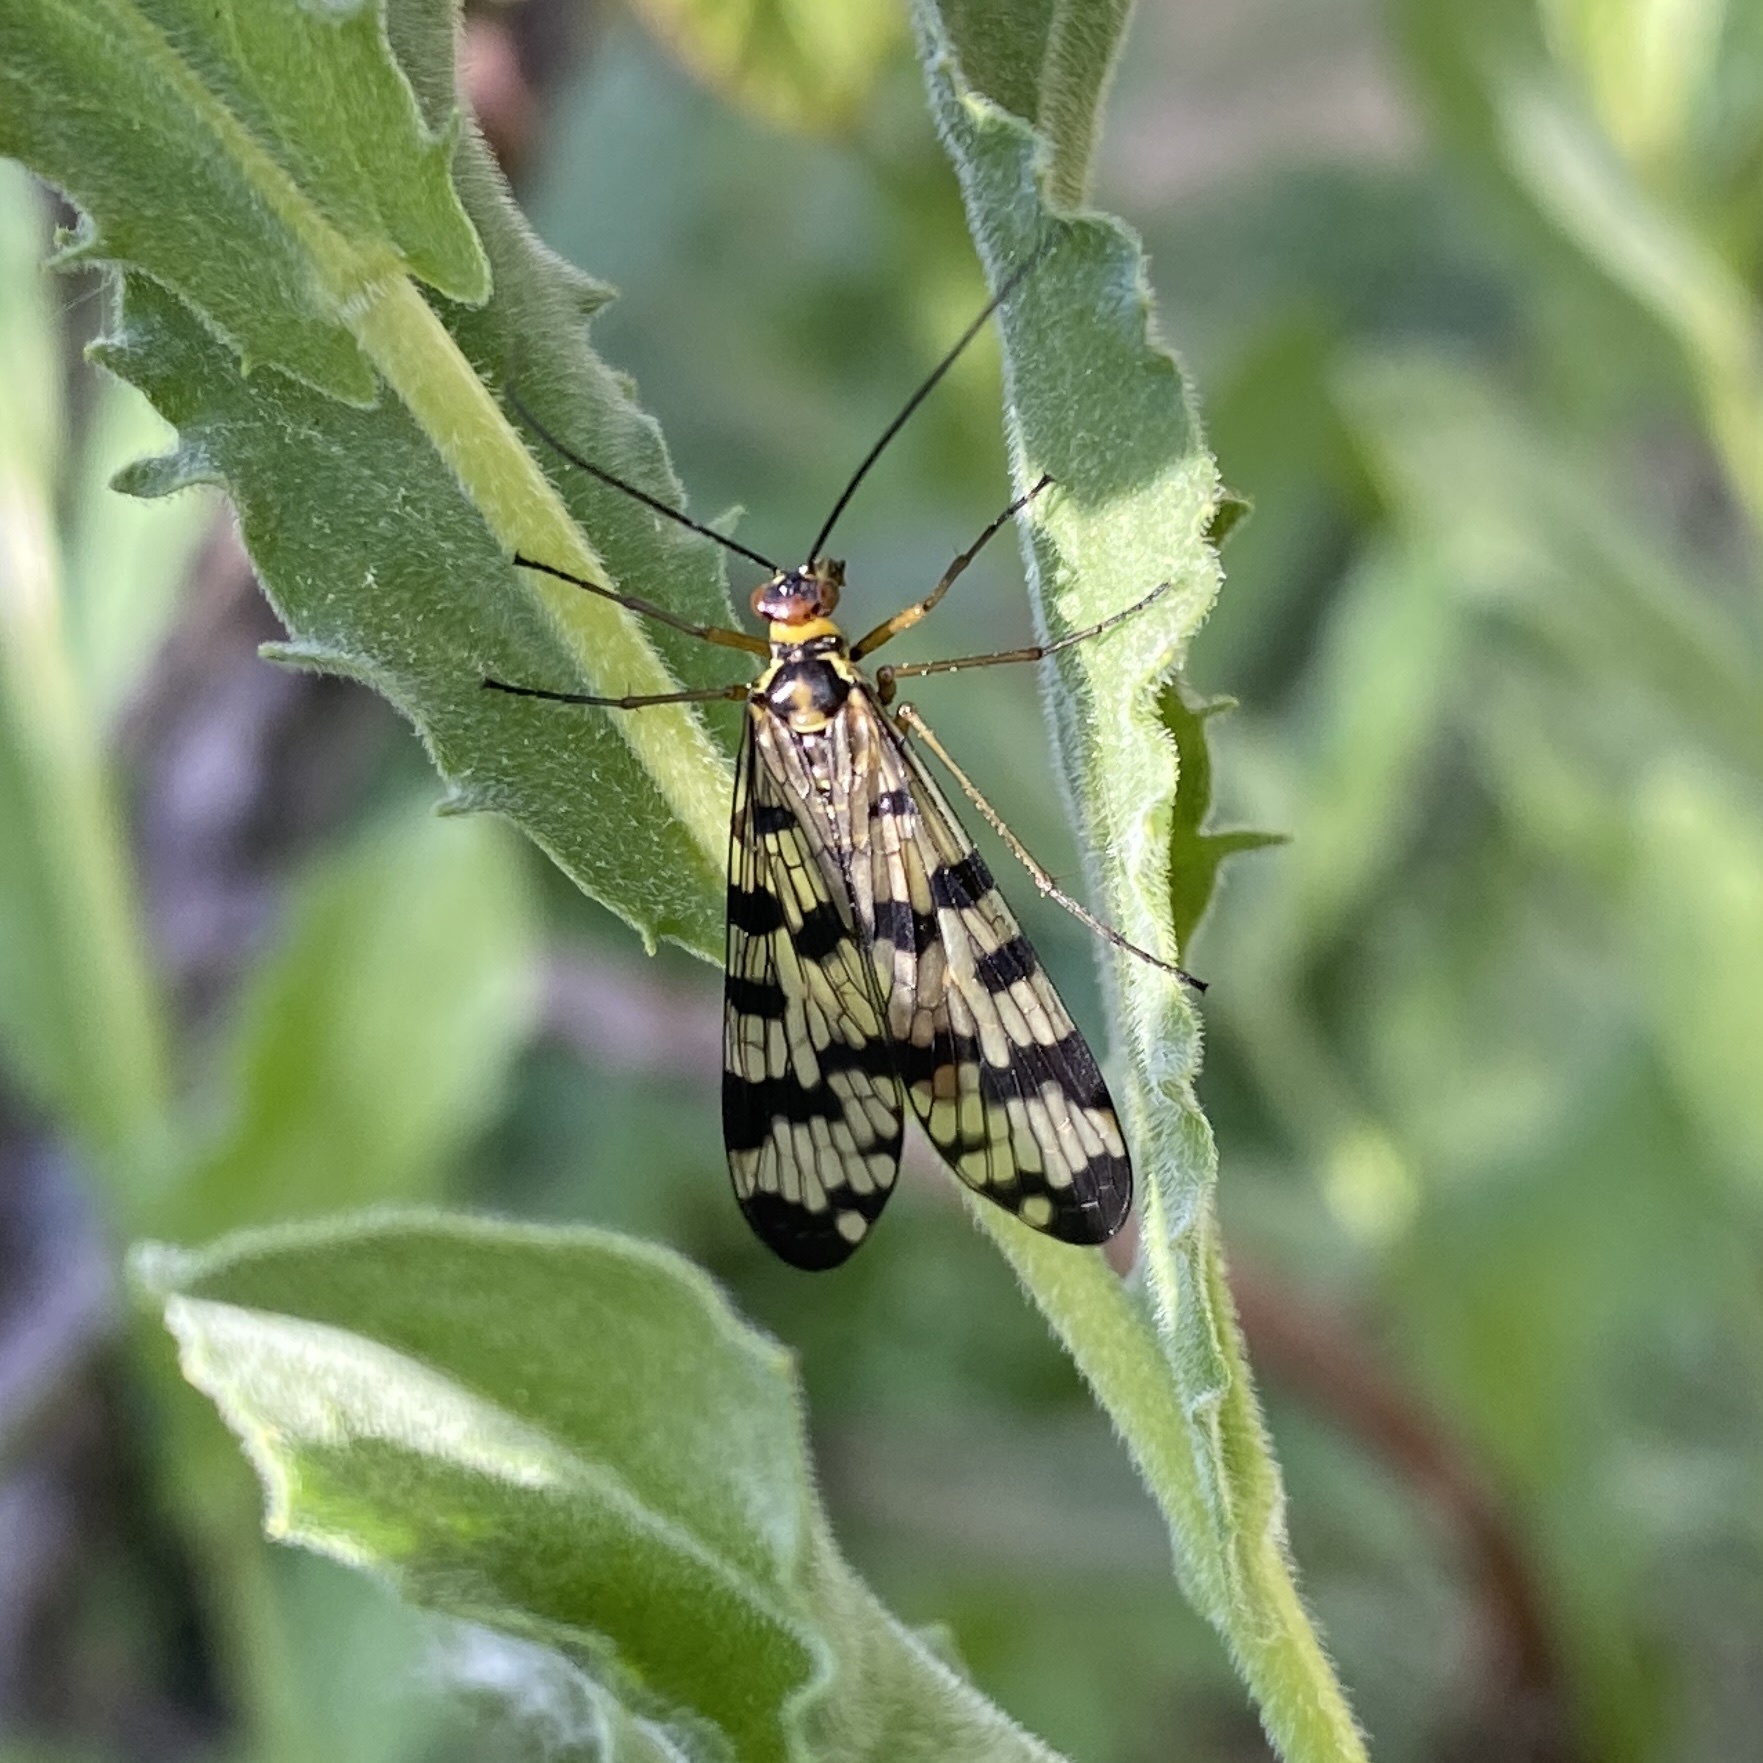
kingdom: Animalia
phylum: Arthropoda
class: Insecta
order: Mecoptera
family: Panorpidae
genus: Panorpa
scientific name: Panorpa meridionalis
